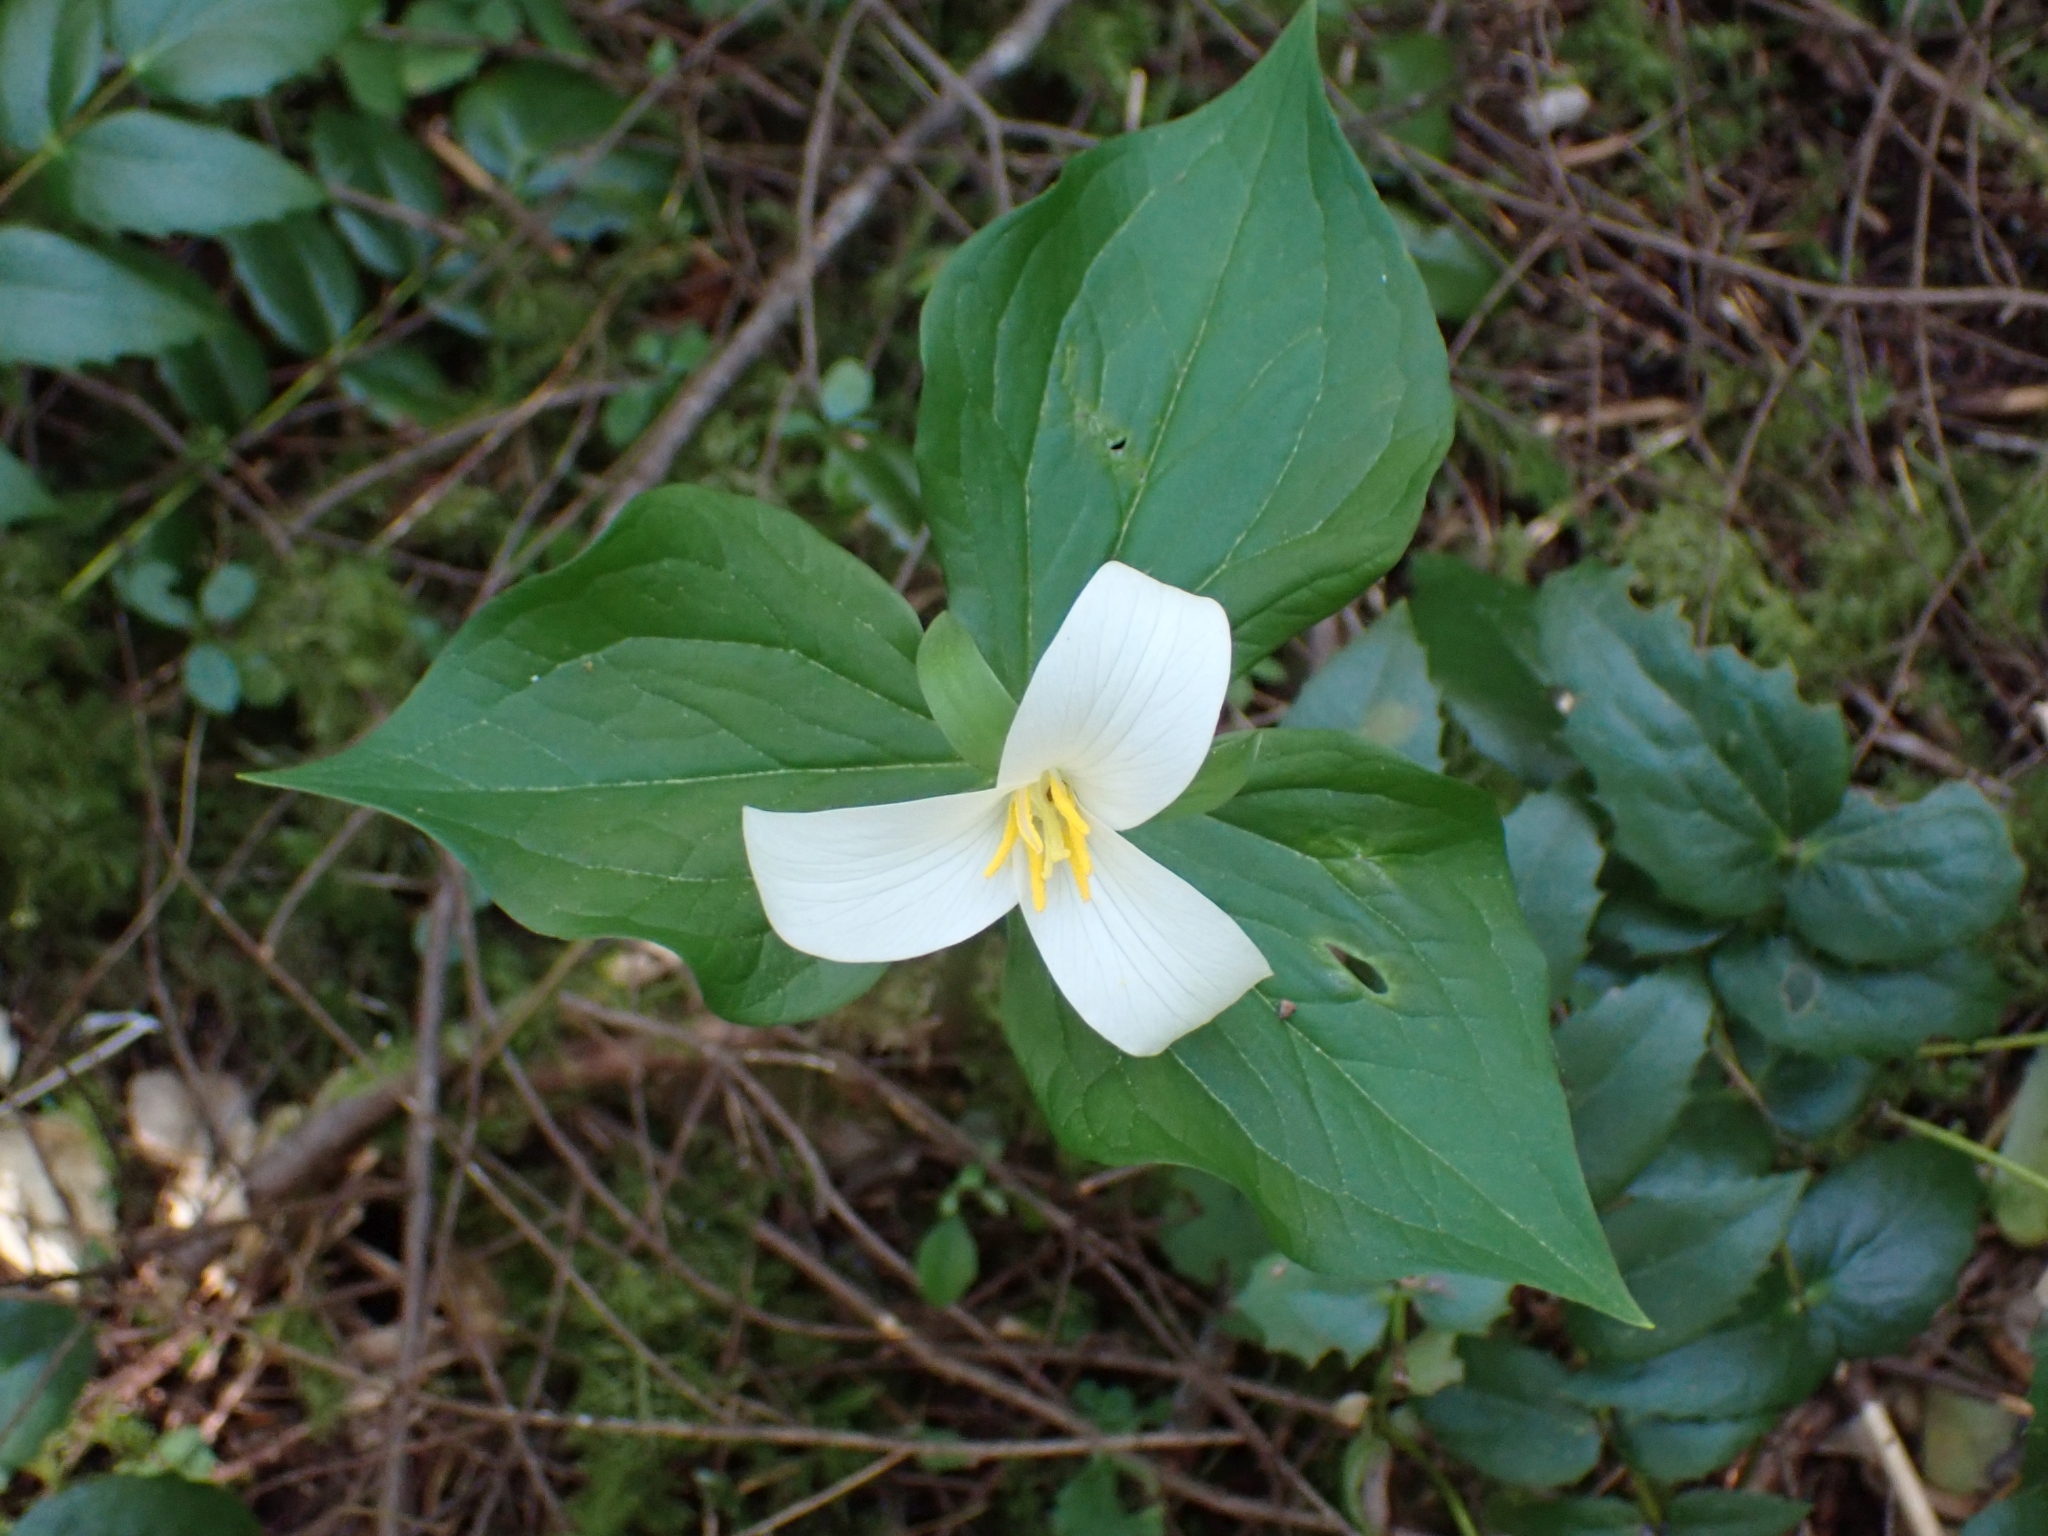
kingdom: Plantae
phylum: Tracheophyta
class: Liliopsida
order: Liliales
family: Melanthiaceae
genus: Trillium
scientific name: Trillium ovatum
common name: Pacific trillium
